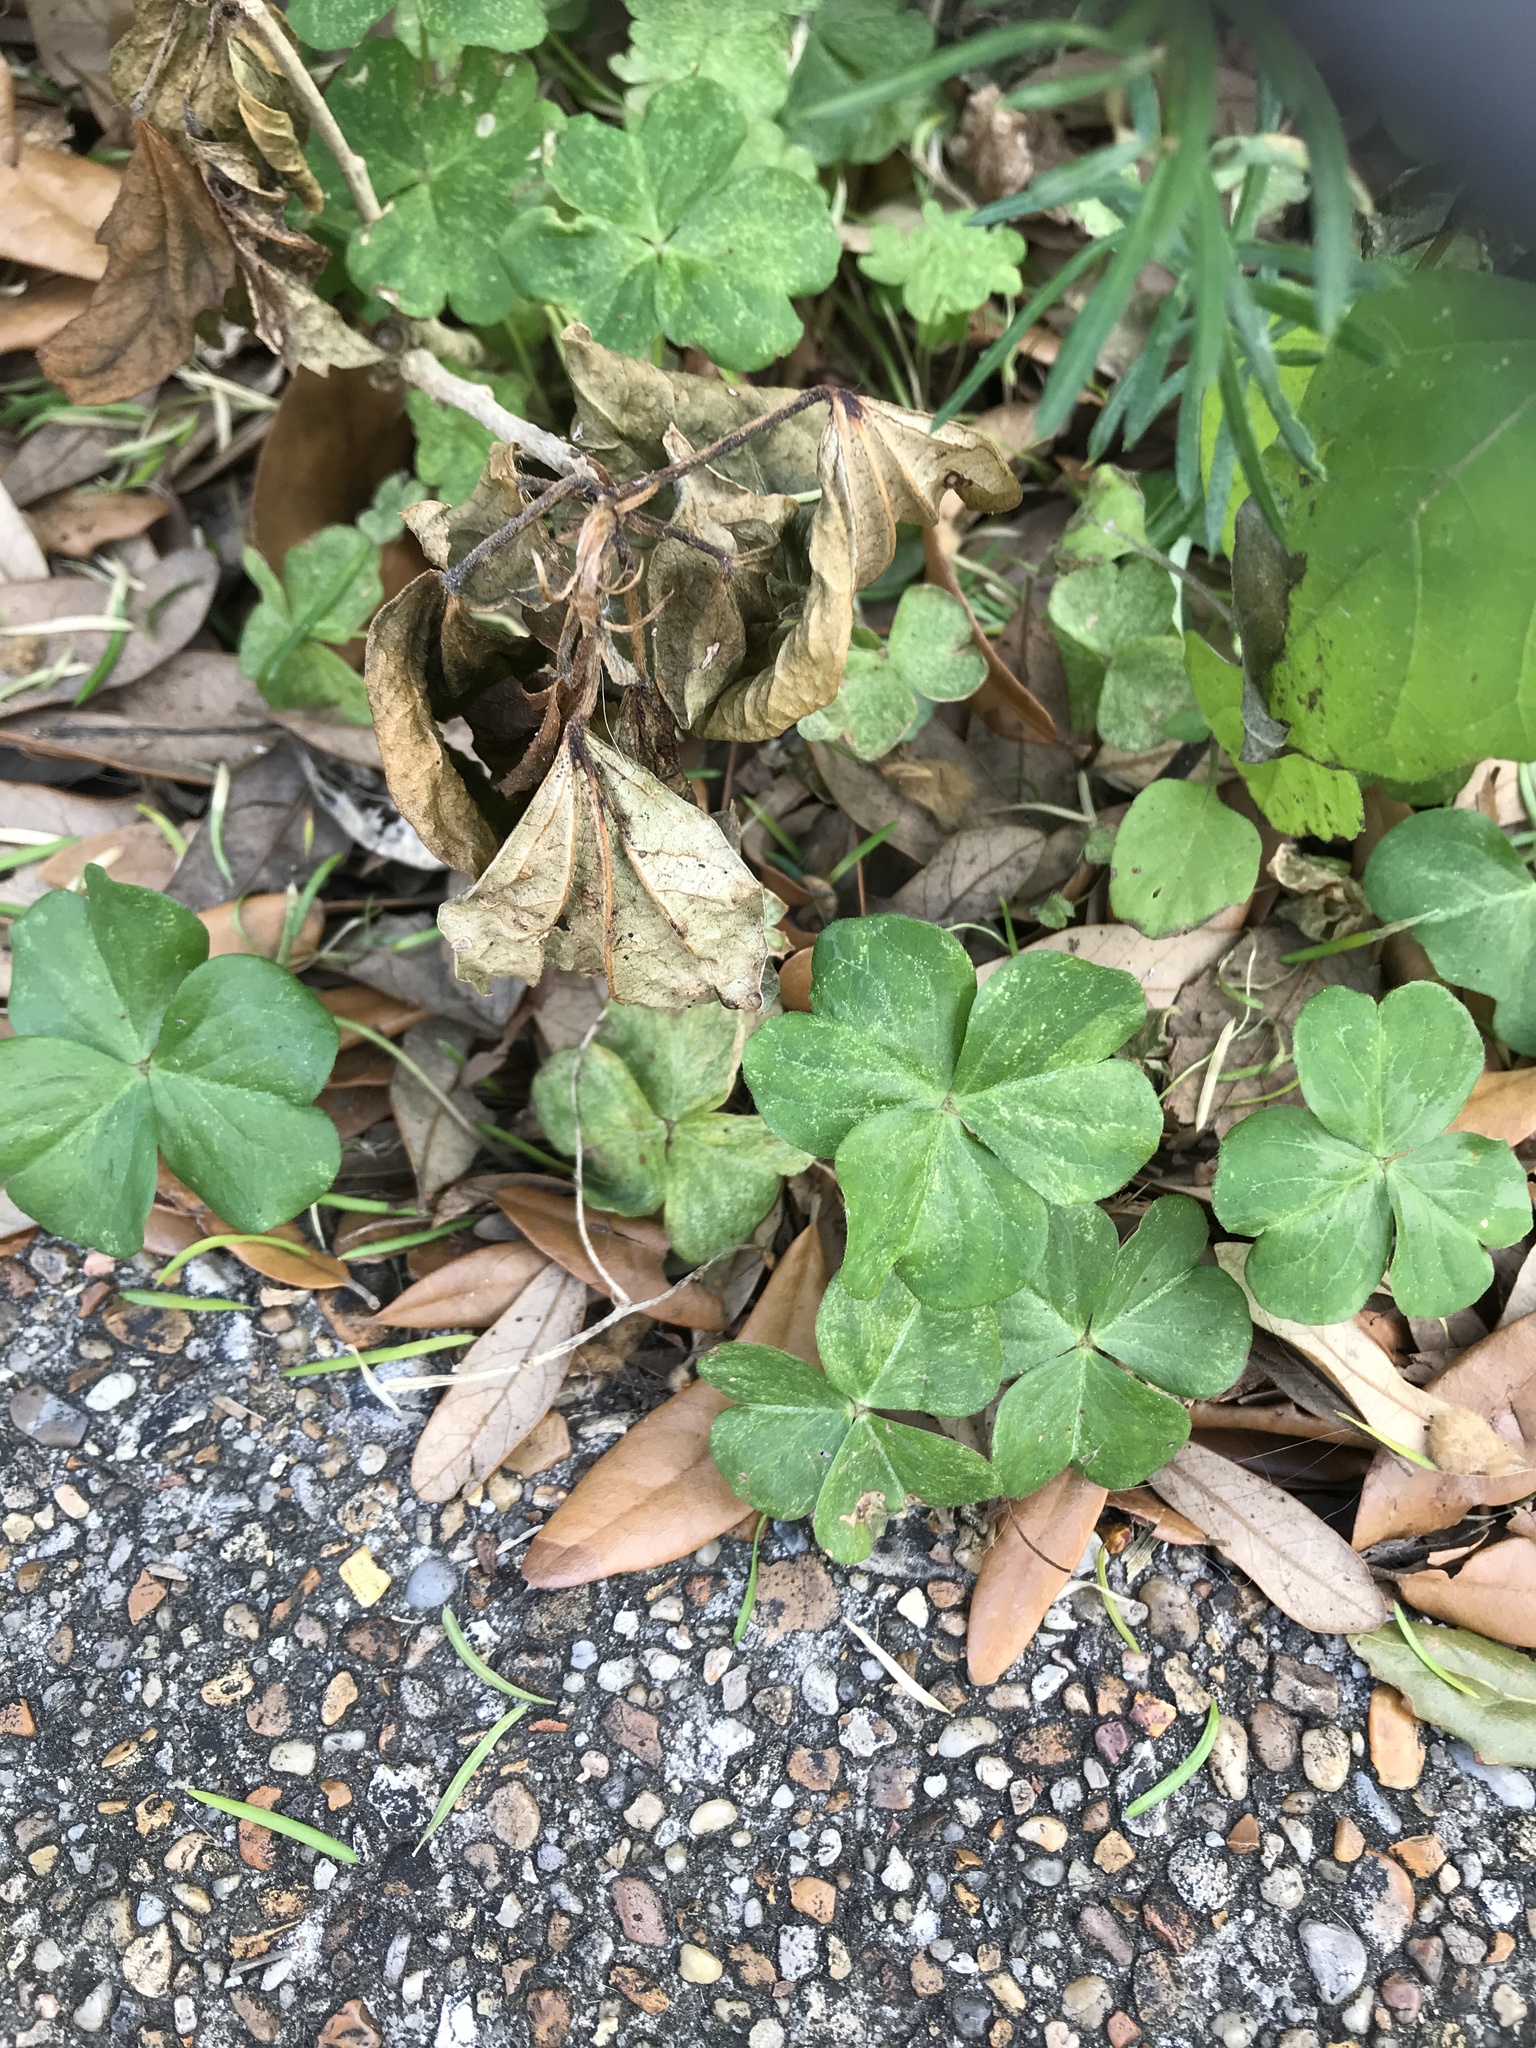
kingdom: Plantae
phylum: Tracheophyta
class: Magnoliopsida
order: Oxalidales
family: Oxalidaceae
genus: Oxalis
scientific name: Oxalis debilis
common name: Large-flowered pink-sorrel
